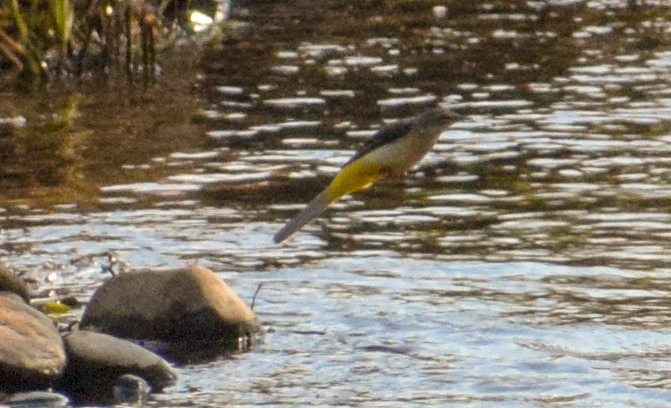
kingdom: Animalia
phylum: Chordata
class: Aves
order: Passeriformes
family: Motacillidae
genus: Motacilla
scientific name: Motacilla cinerea
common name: Grey wagtail
